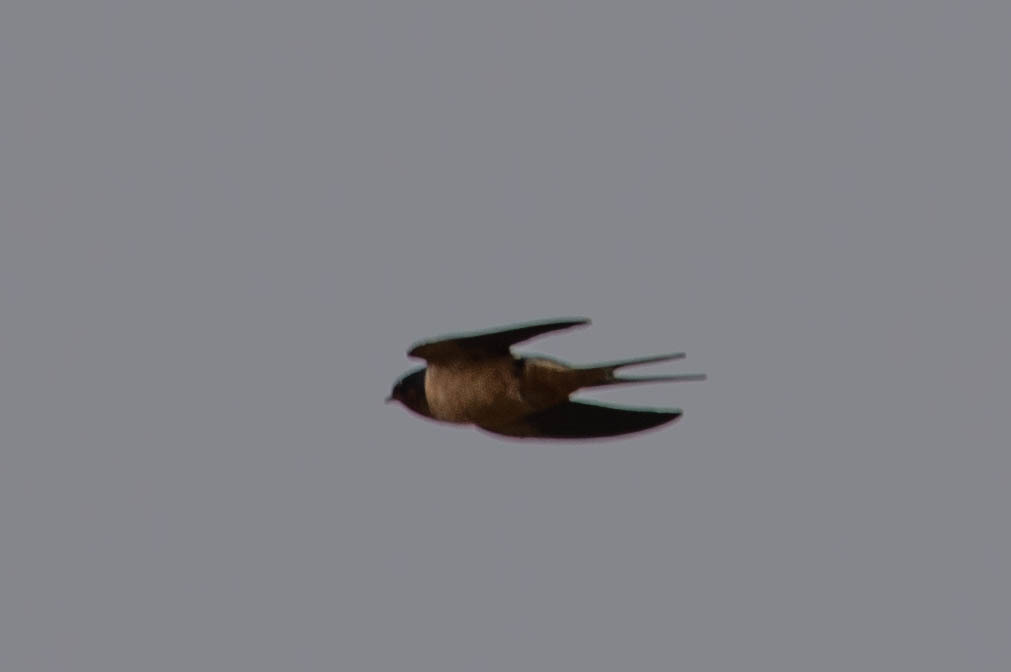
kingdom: Animalia
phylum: Chordata
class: Aves
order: Passeriformes
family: Hirundinidae
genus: Hirundo
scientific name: Hirundo rustica
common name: Barn swallow
